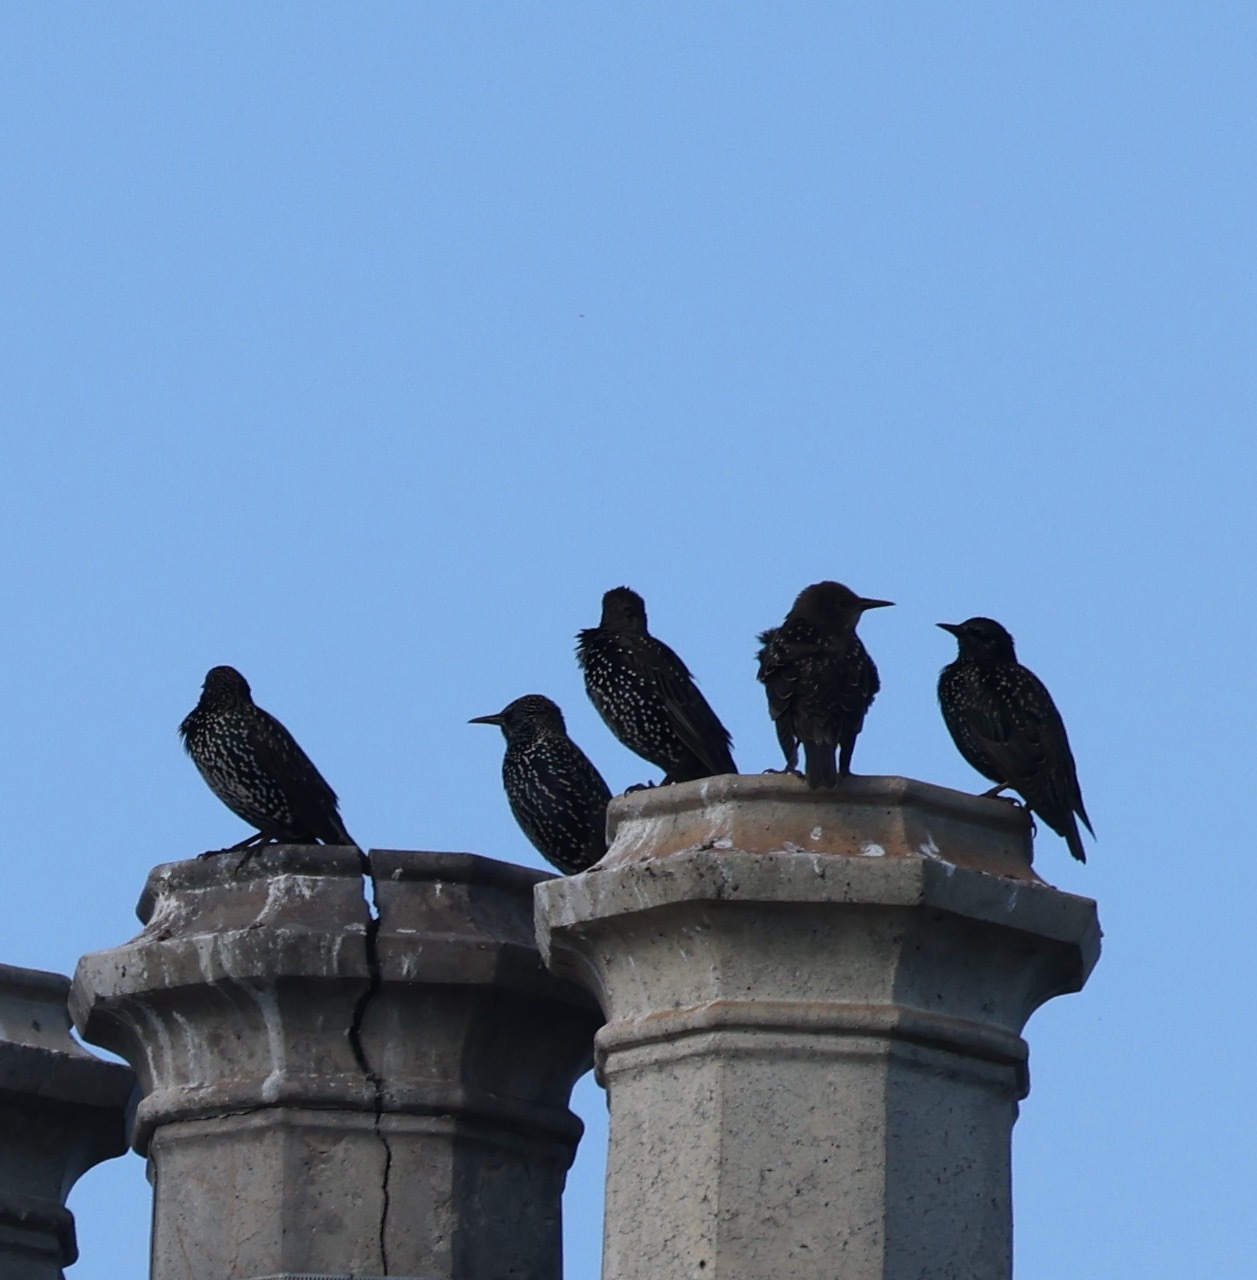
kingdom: Animalia
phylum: Chordata
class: Aves
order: Passeriformes
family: Sturnidae
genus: Sturnus
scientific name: Sturnus vulgaris
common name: Common starling
